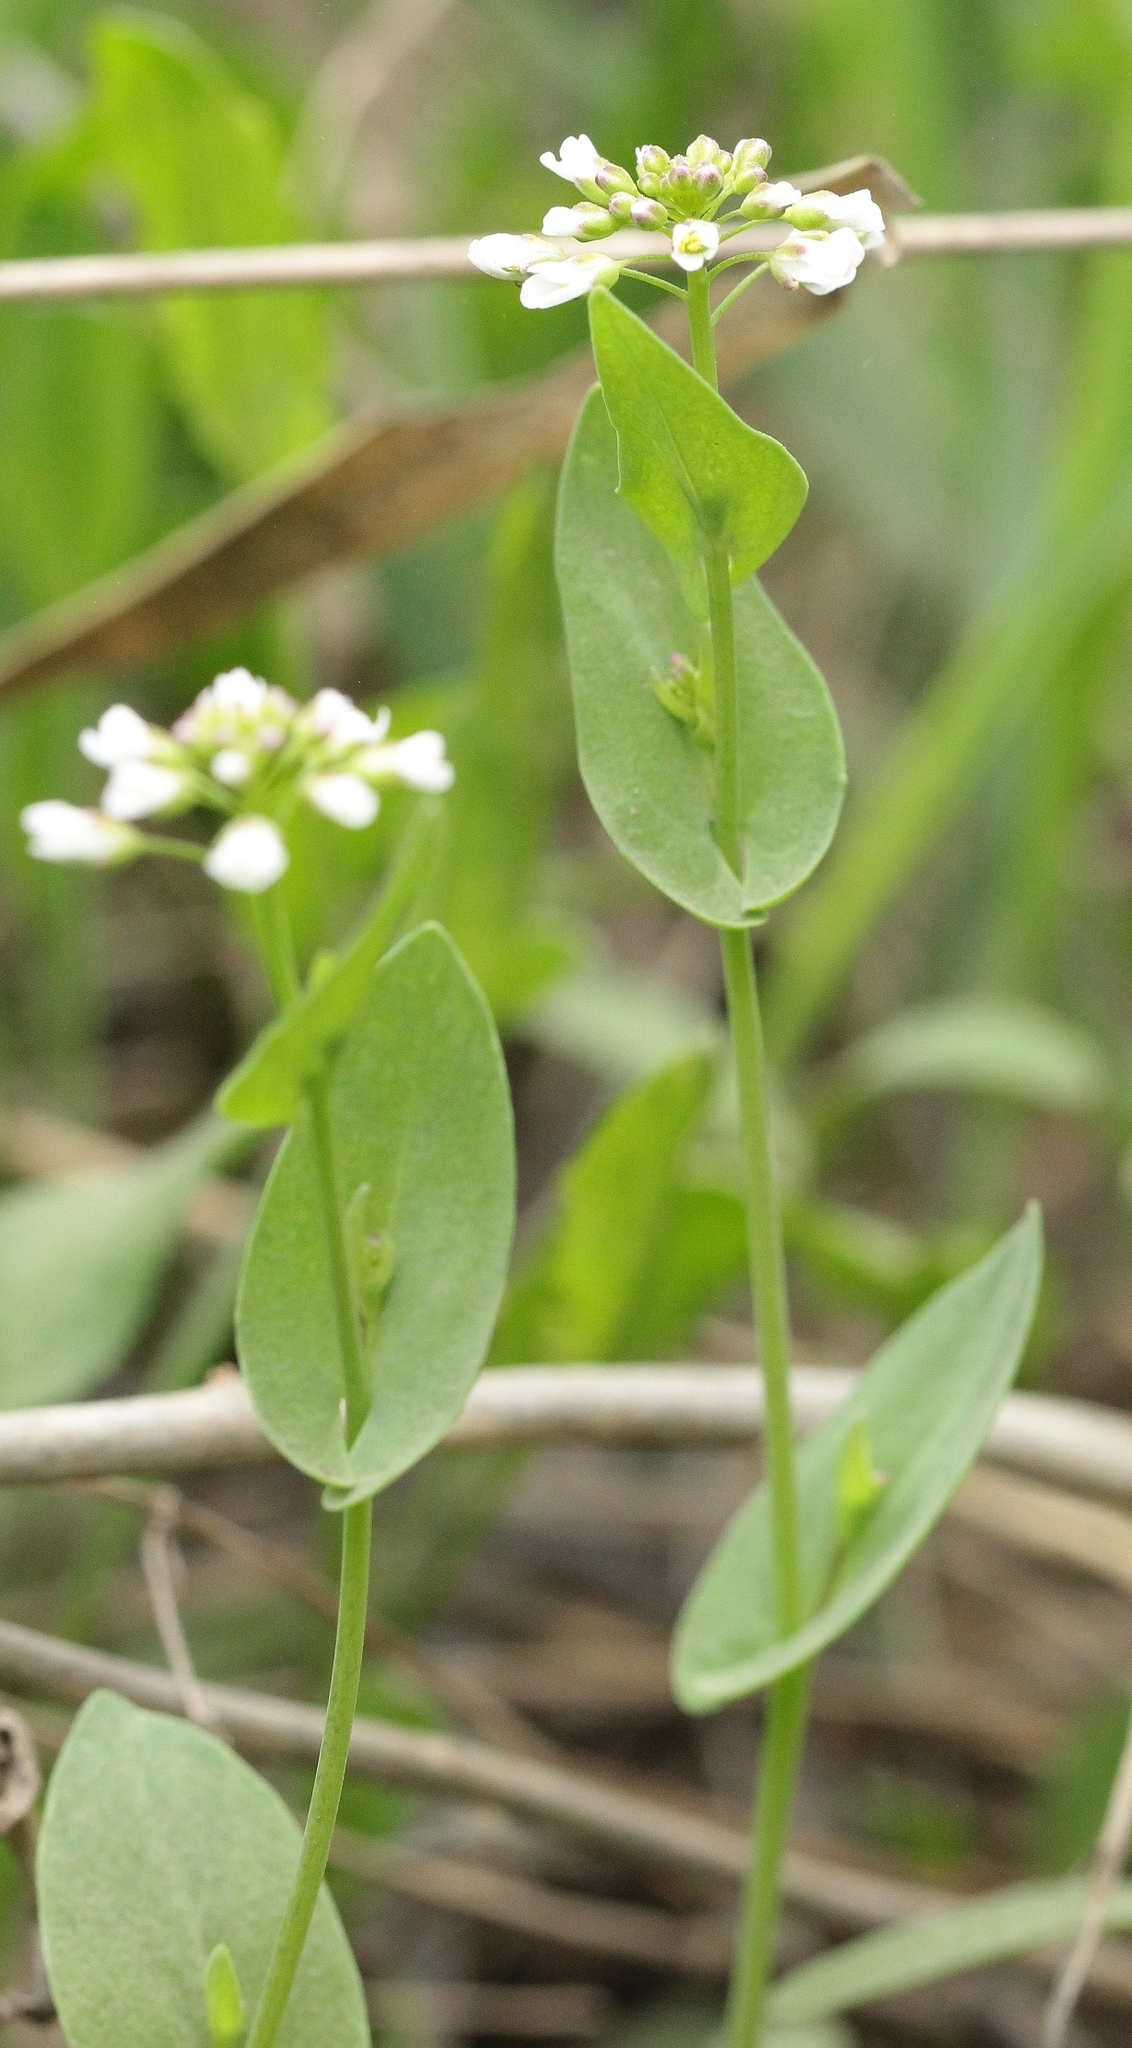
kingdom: Plantae
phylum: Tracheophyta
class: Magnoliopsida
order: Brassicales
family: Brassicaceae
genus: Noccaea
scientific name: Noccaea perfoliata
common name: Perfoliate pennycress
